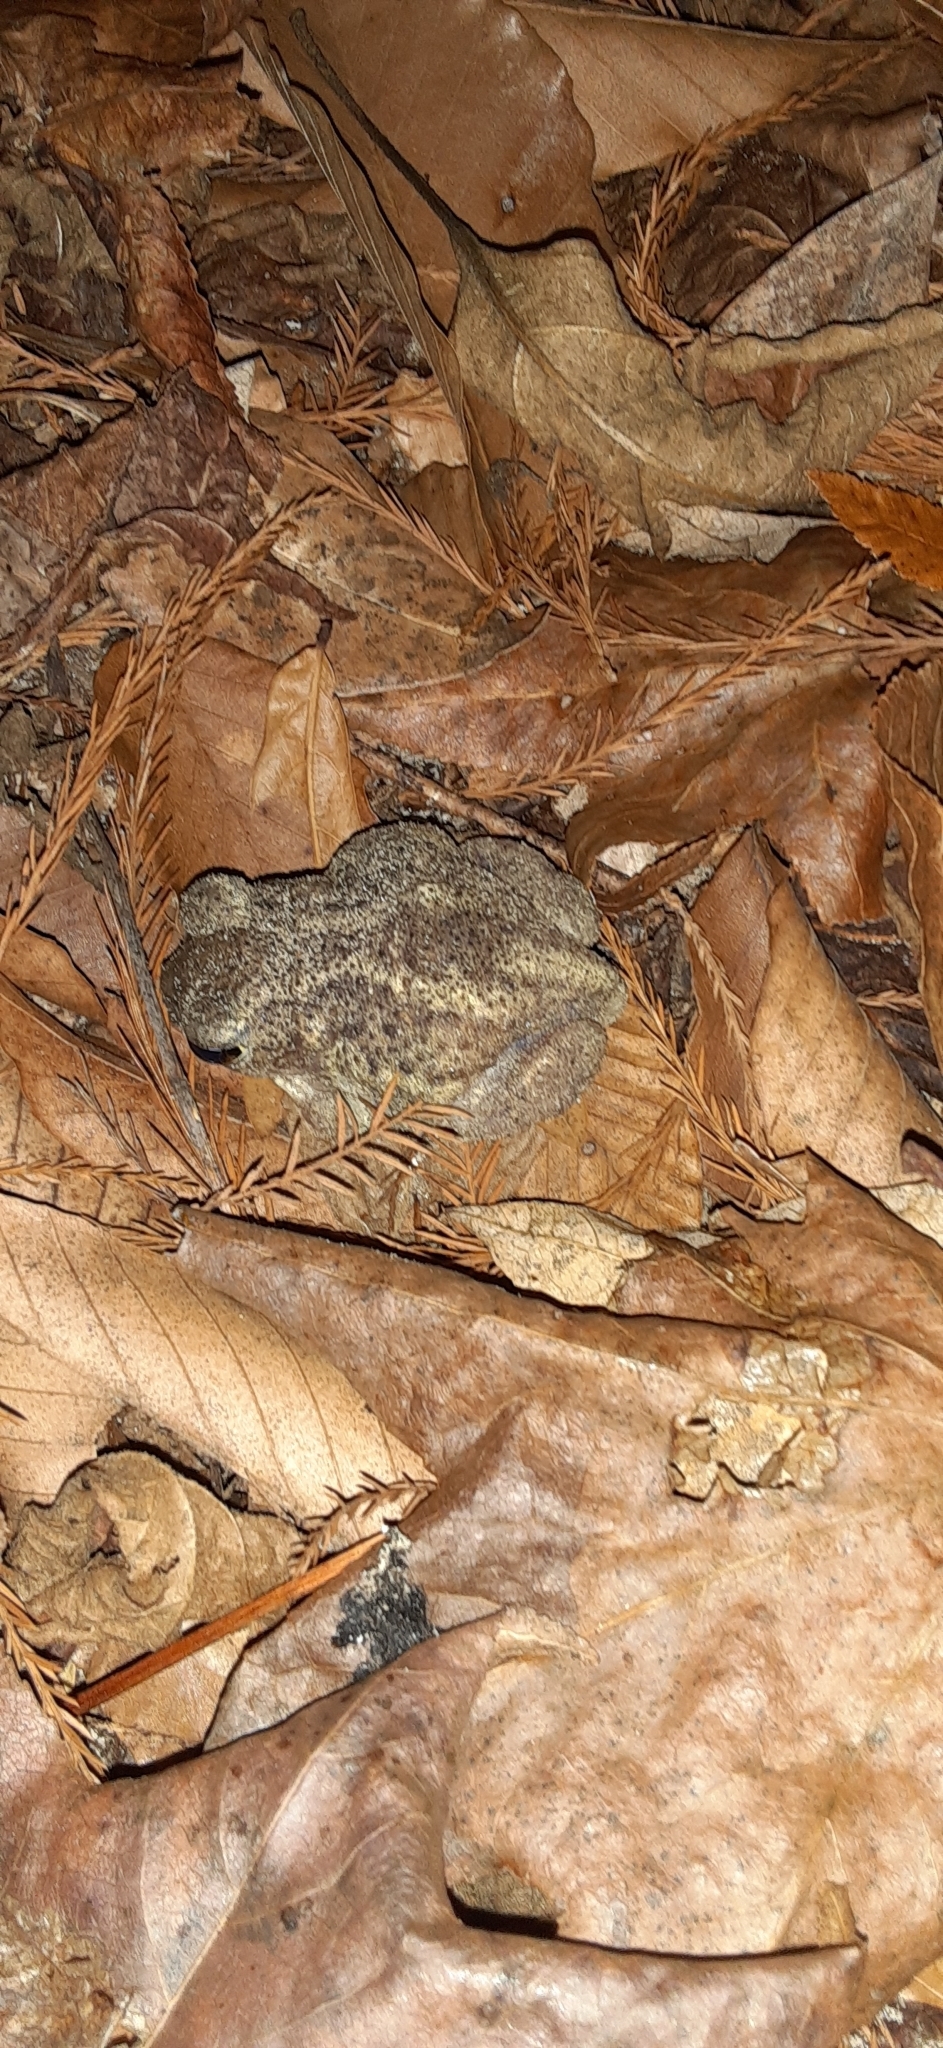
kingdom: Animalia
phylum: Chordata
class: Amphibia
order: Anura
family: Scaphiopodidae
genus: Scaphiopus
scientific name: Scaphiopus hurterii
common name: Hurter's spadefoot toad
